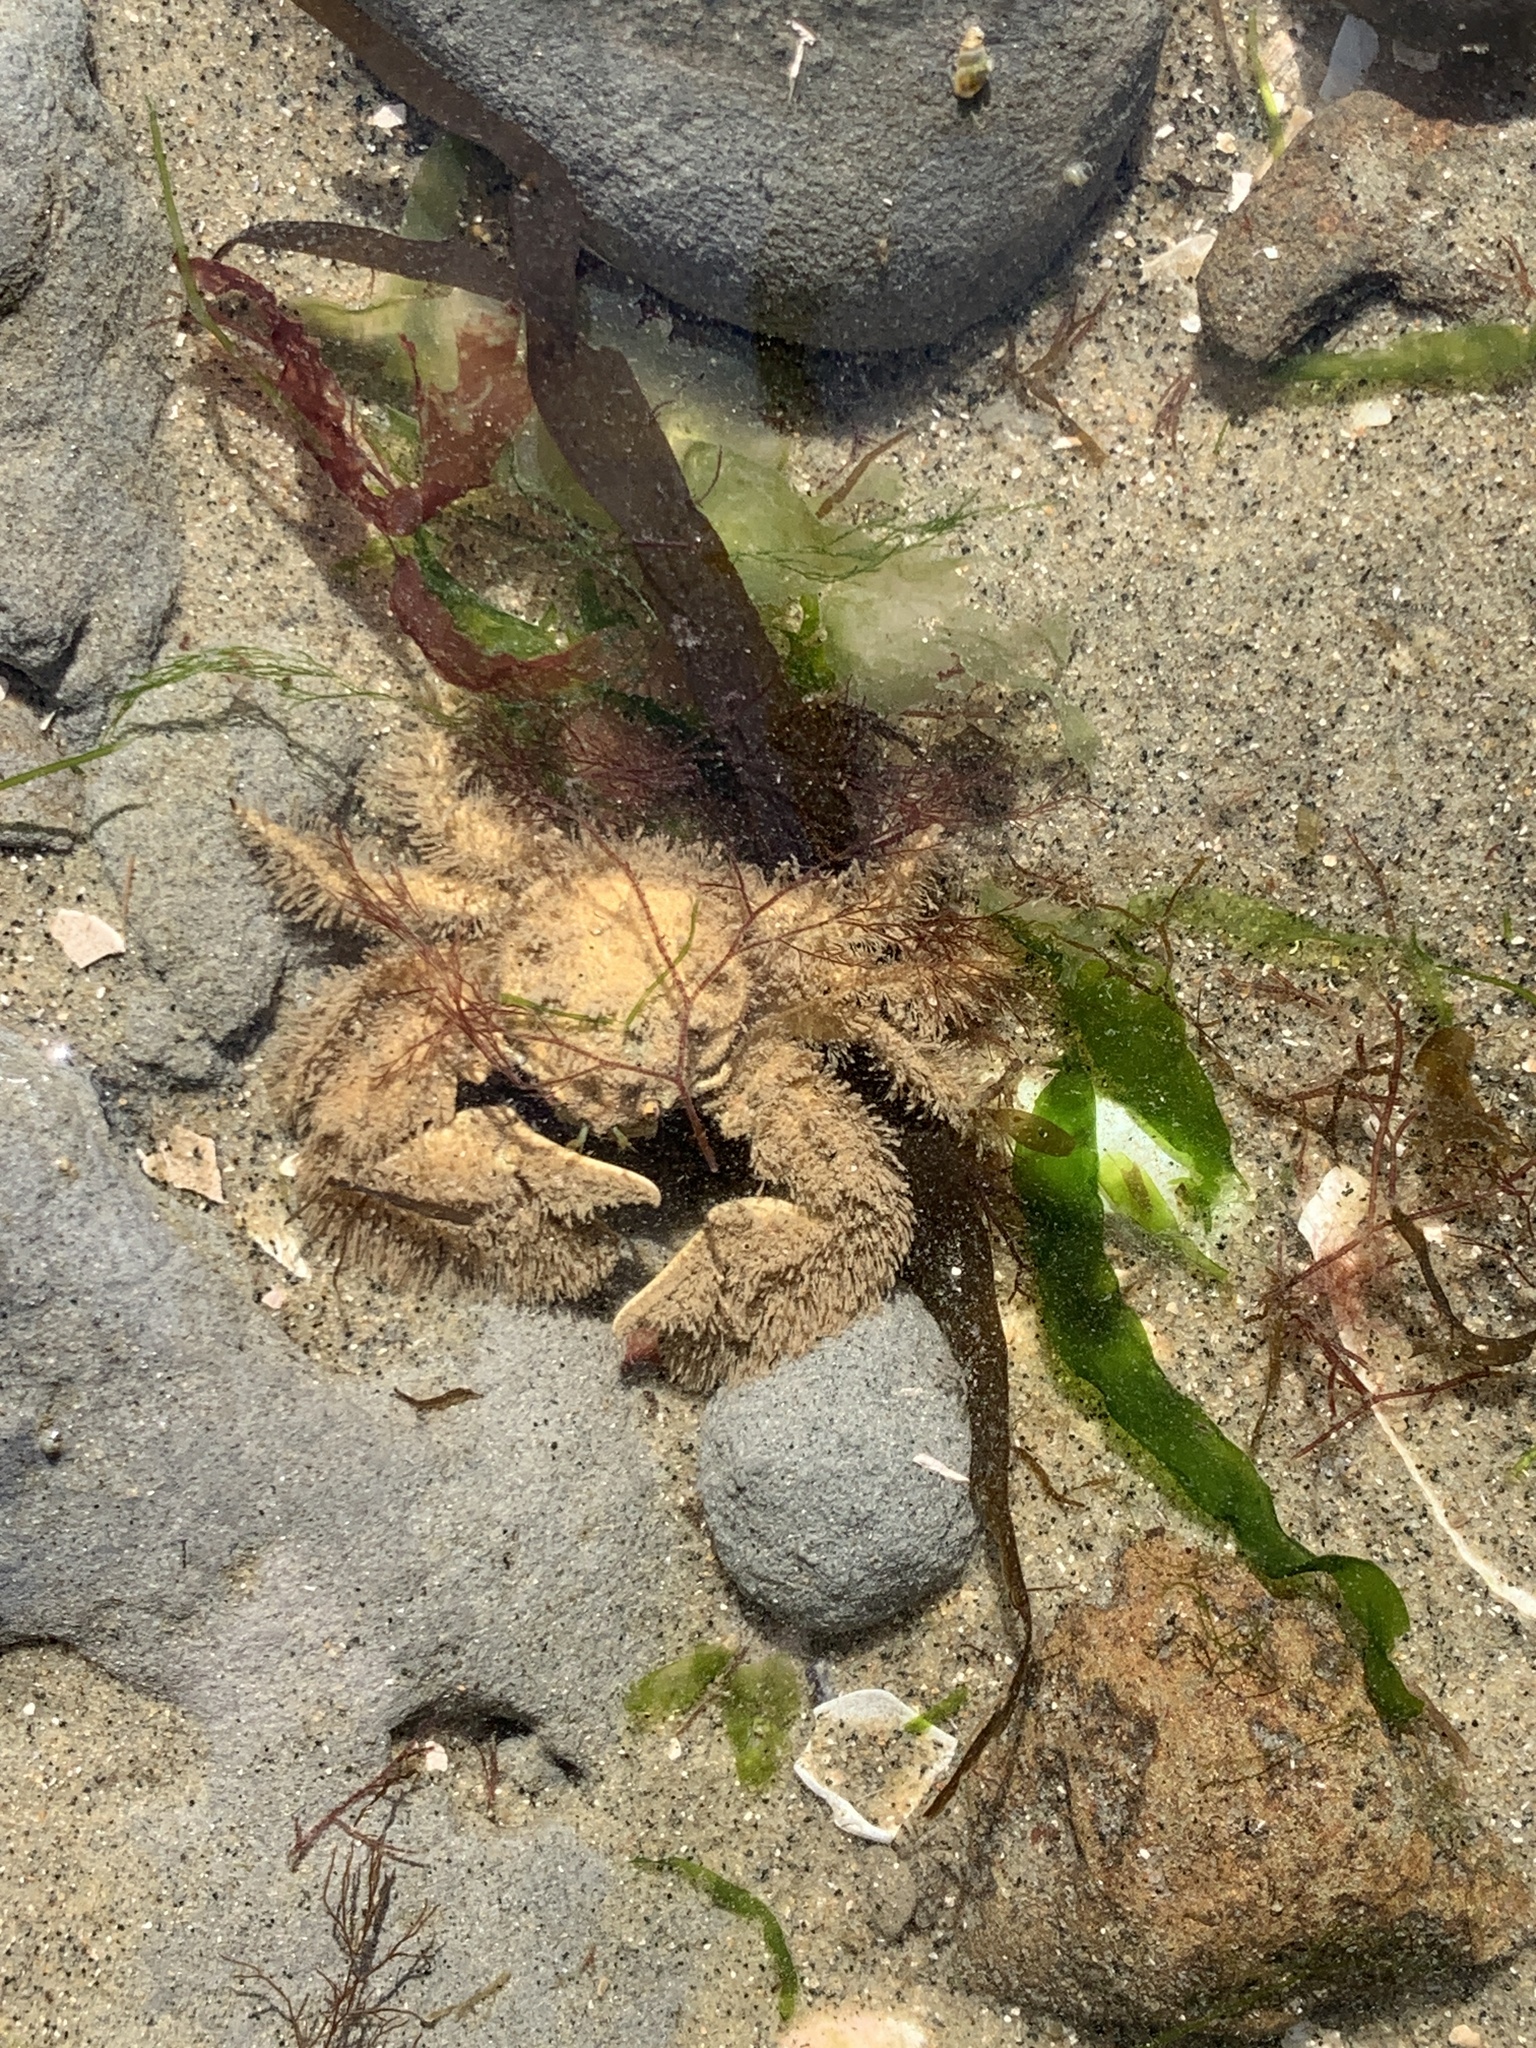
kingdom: Animalia
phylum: Arthropoda
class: Malacostraca
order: Decapoda
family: Porcellanidae
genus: Porcellana
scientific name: Porcellana platycheles
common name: Porcelain crab
